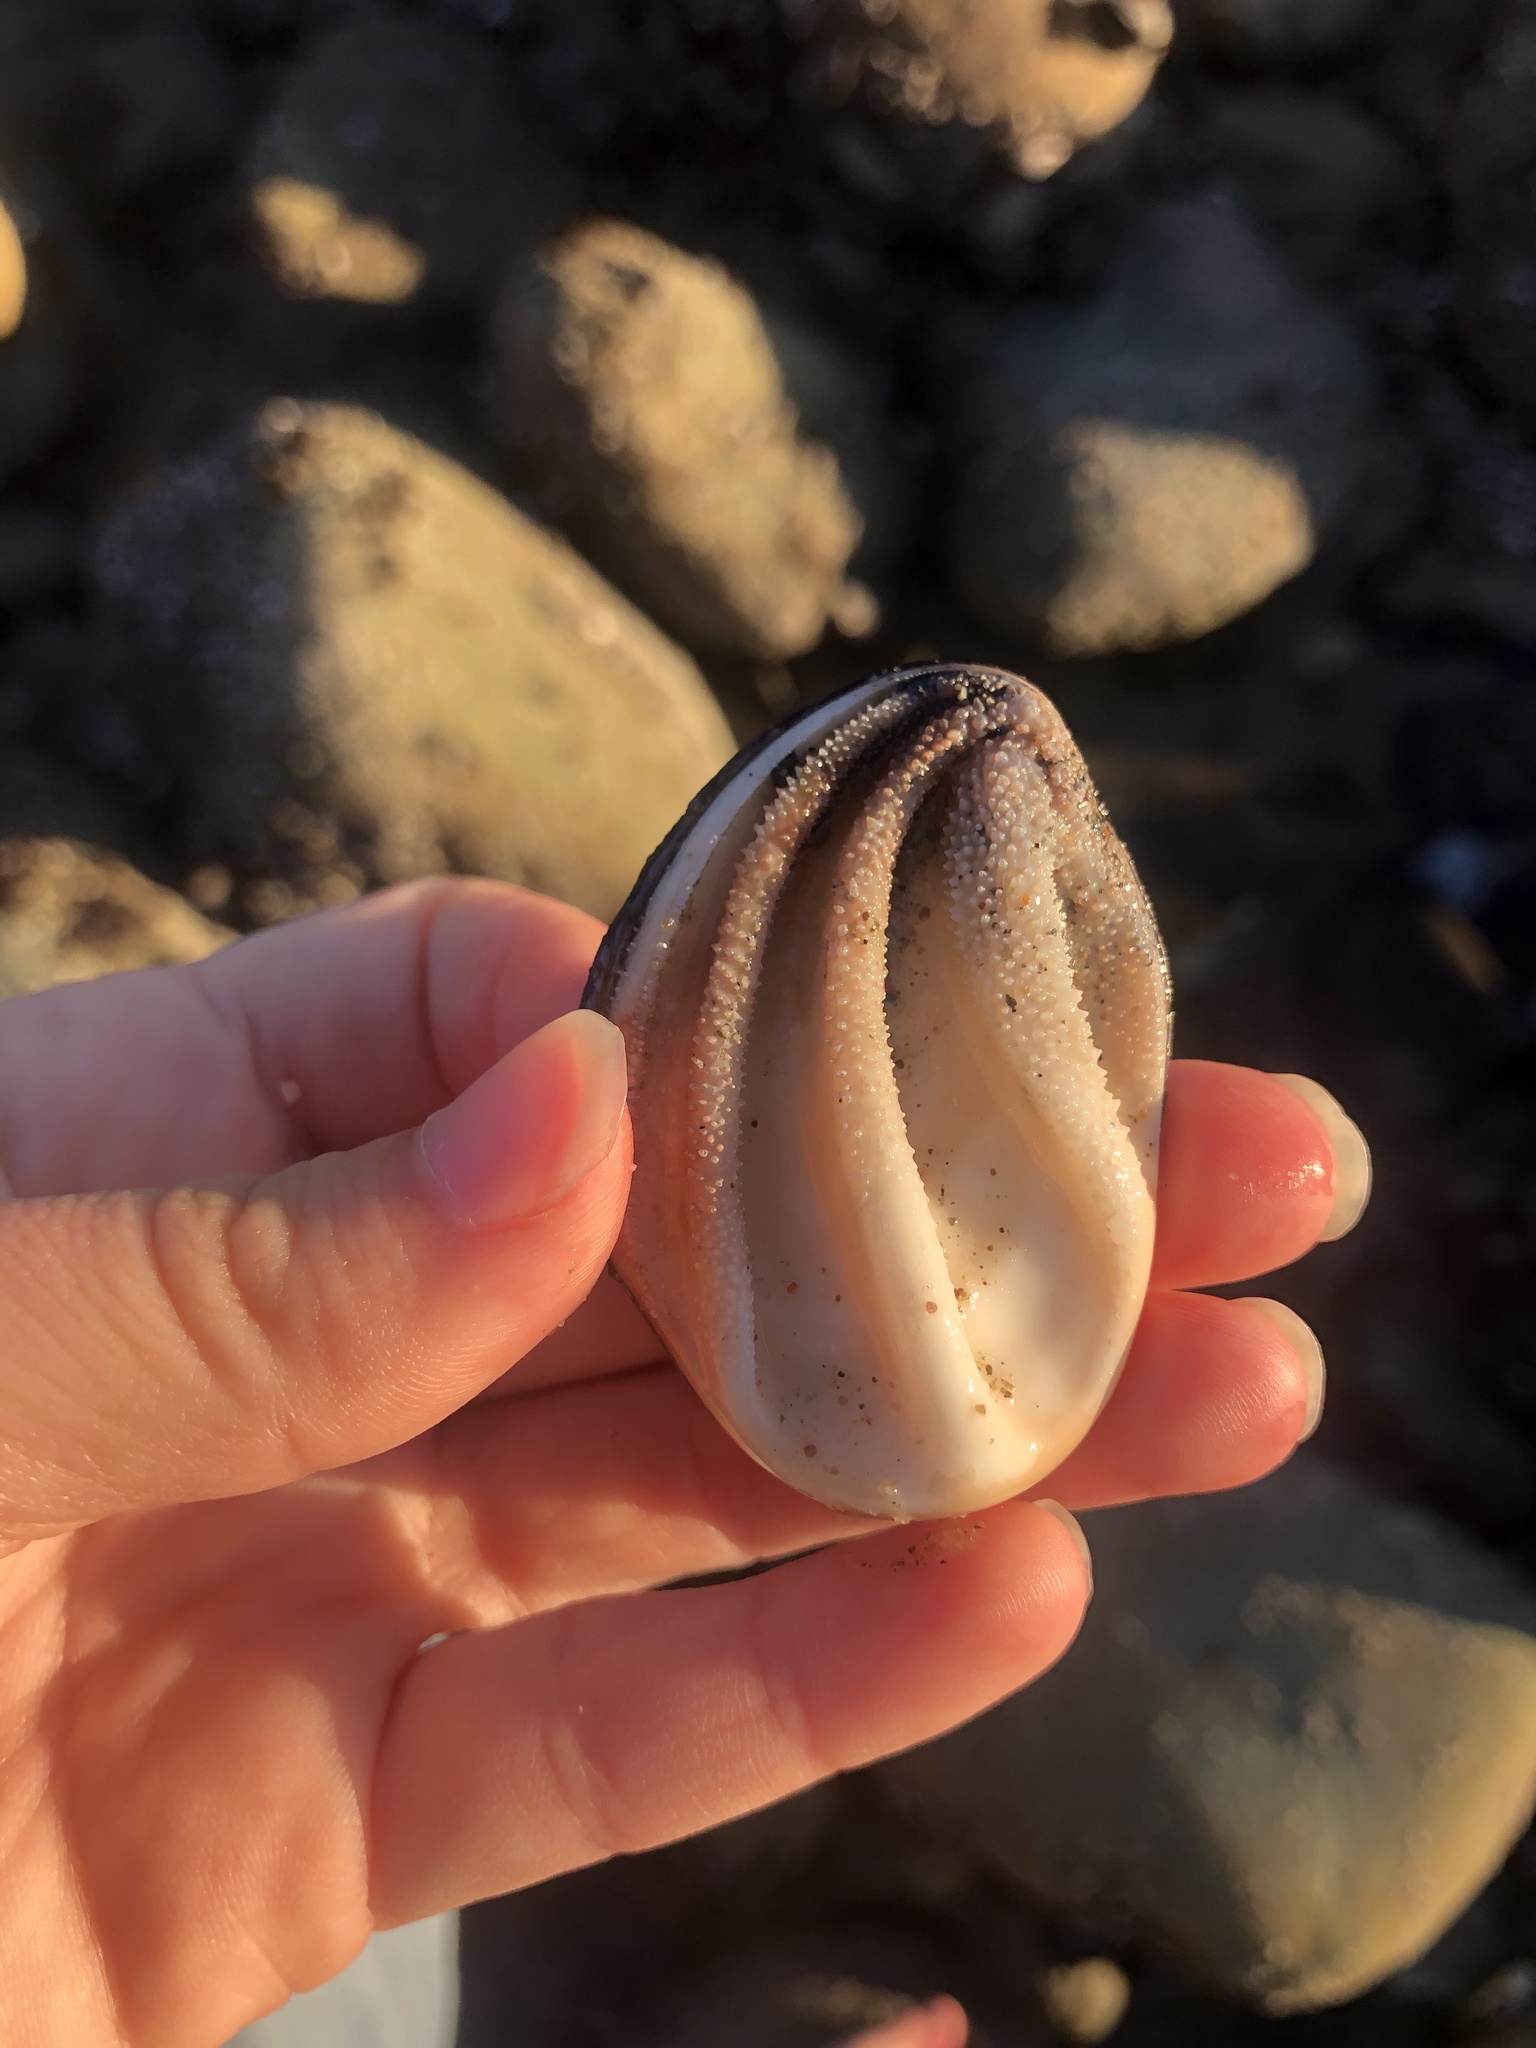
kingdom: Animalia
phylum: Mollusca
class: Gastropoda
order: Trochida
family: Turbinidae
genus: Megastraea
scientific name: Megastraea undosa
